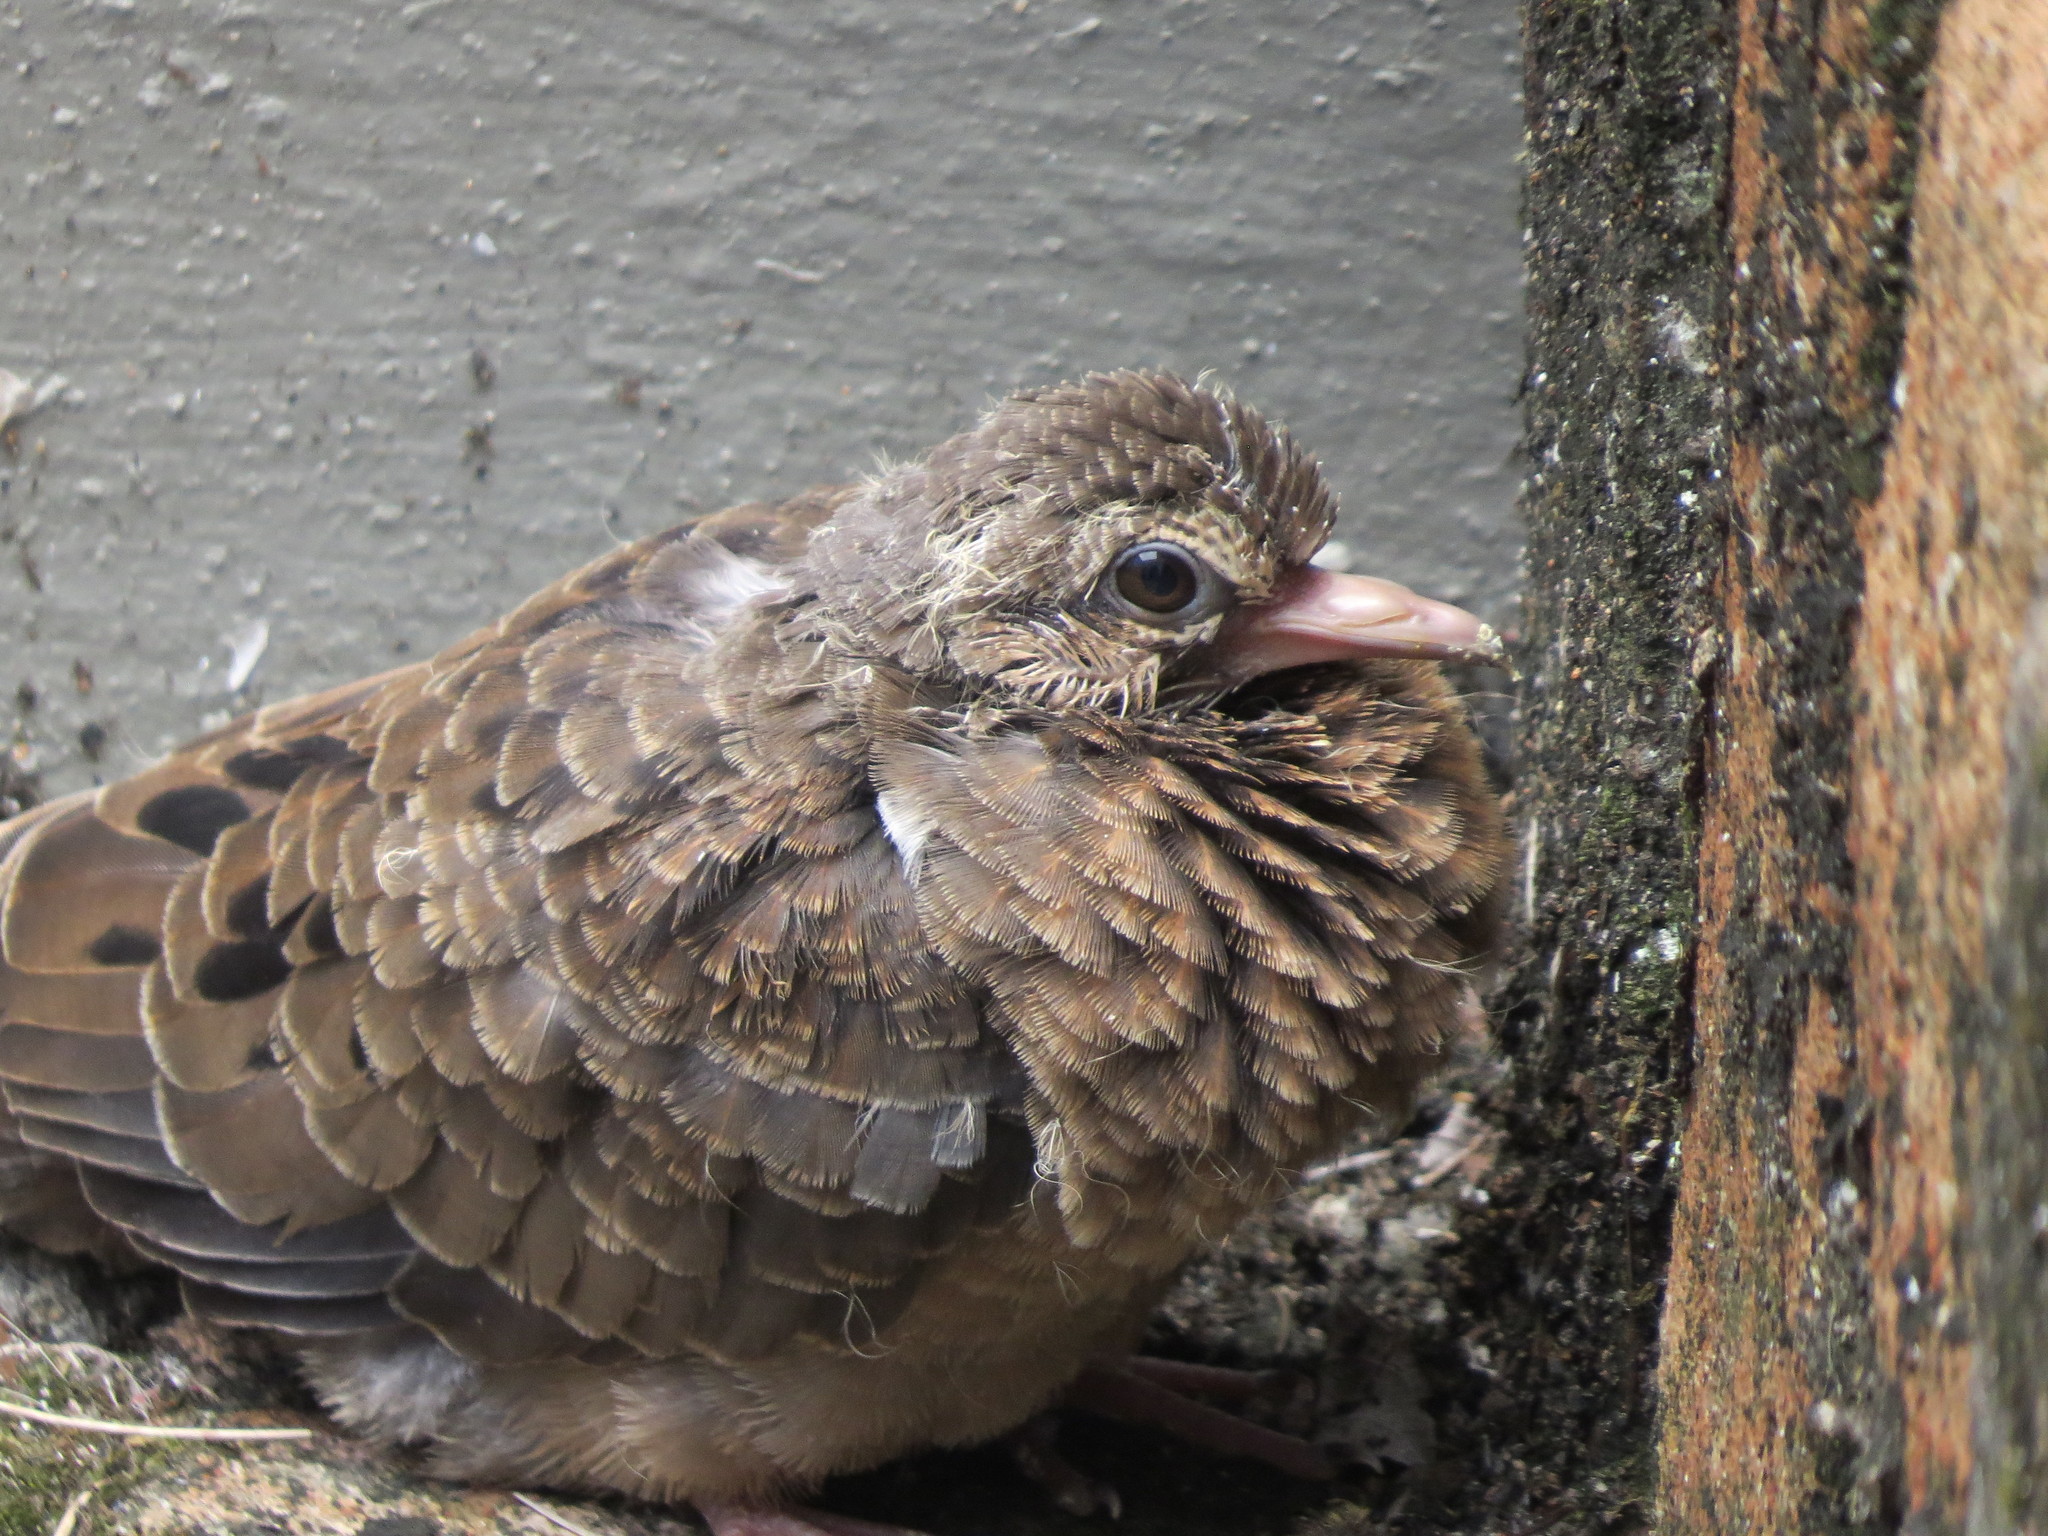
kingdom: Animalia
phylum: Chordata
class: Aves
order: Columbiformes
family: Columbidae
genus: Columbina
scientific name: Columbina talpacoti
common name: Ruddy ground dove
